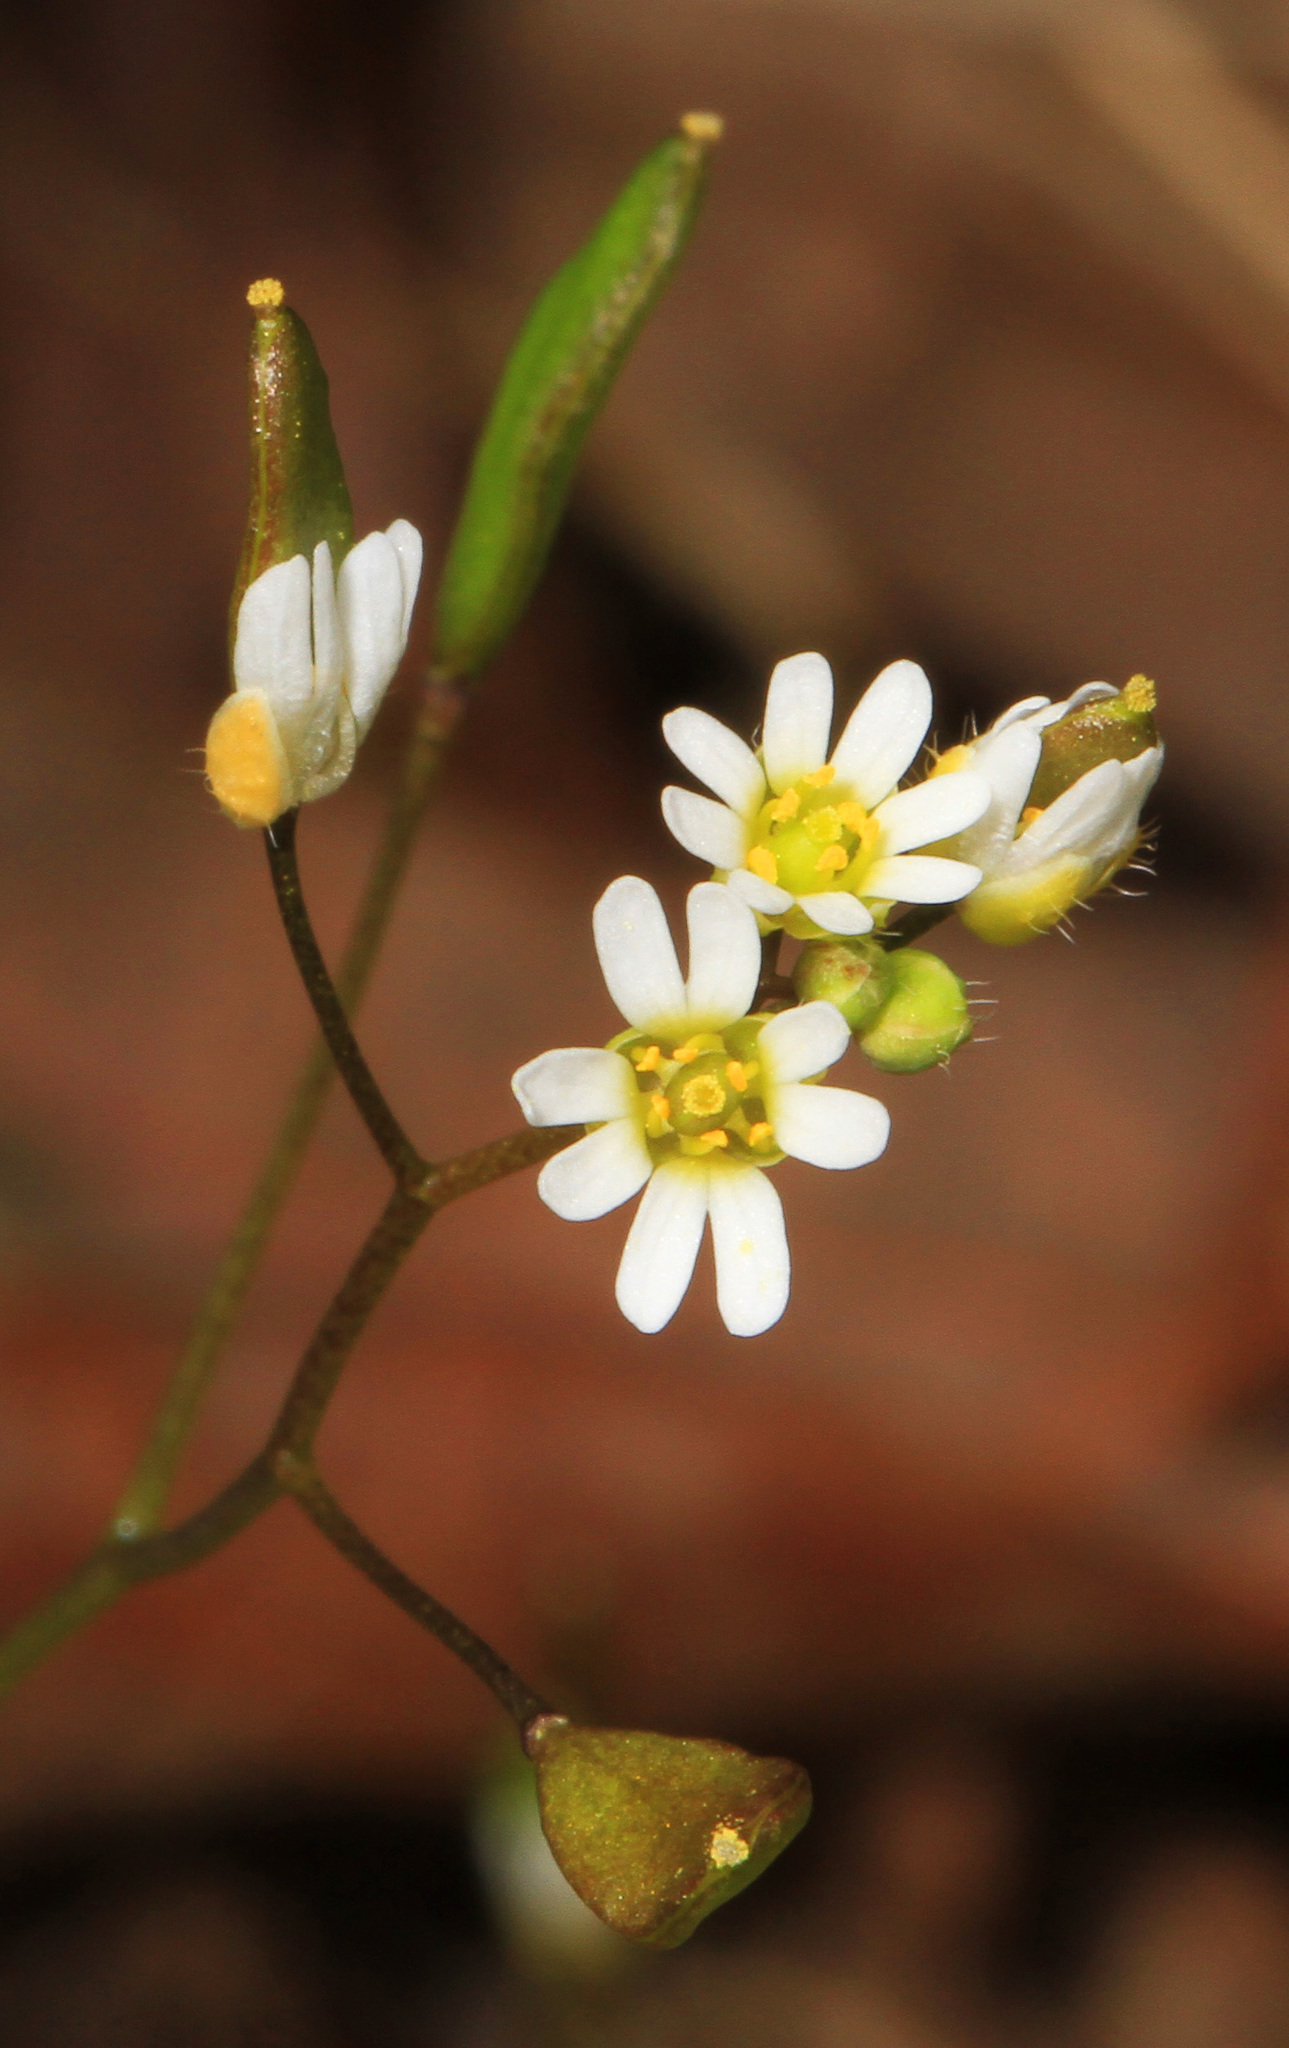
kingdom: Plantae
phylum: Tracheophyta
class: Magnoliopsida
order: Brassicales
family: Brassicaceae
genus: Draba
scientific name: Draba verna
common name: Spring draba
